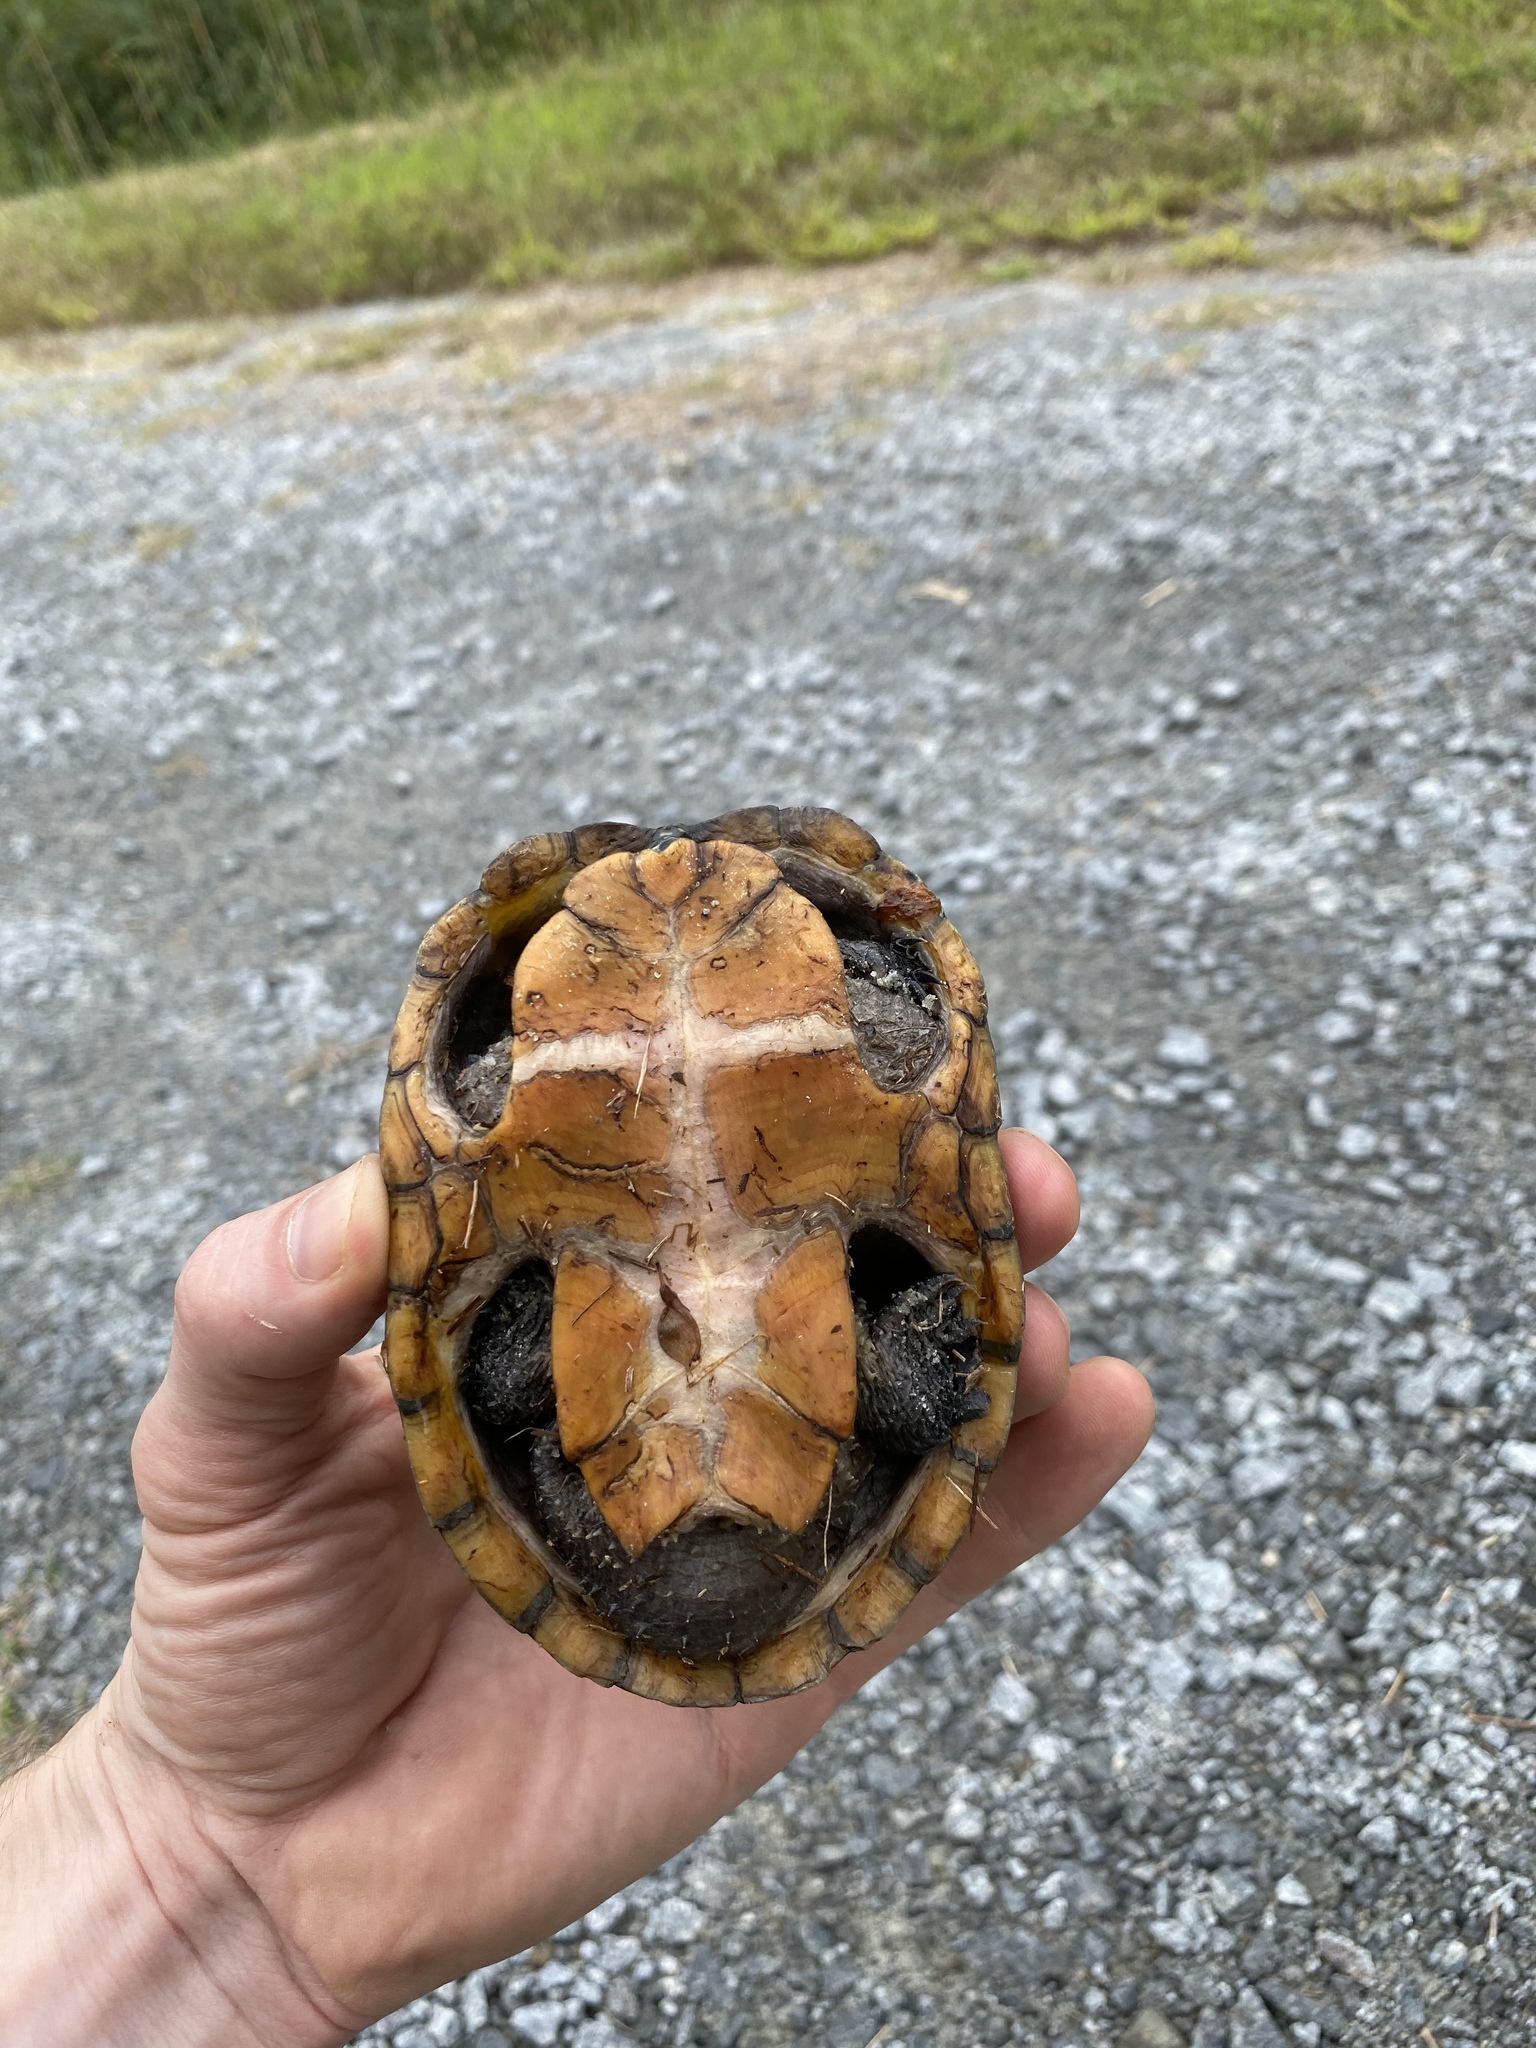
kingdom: Animalia
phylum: Chordata
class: Testudines
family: Kinosternidae
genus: Sternotherus
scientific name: Sternotherus odoratus
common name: Common musk turtle
